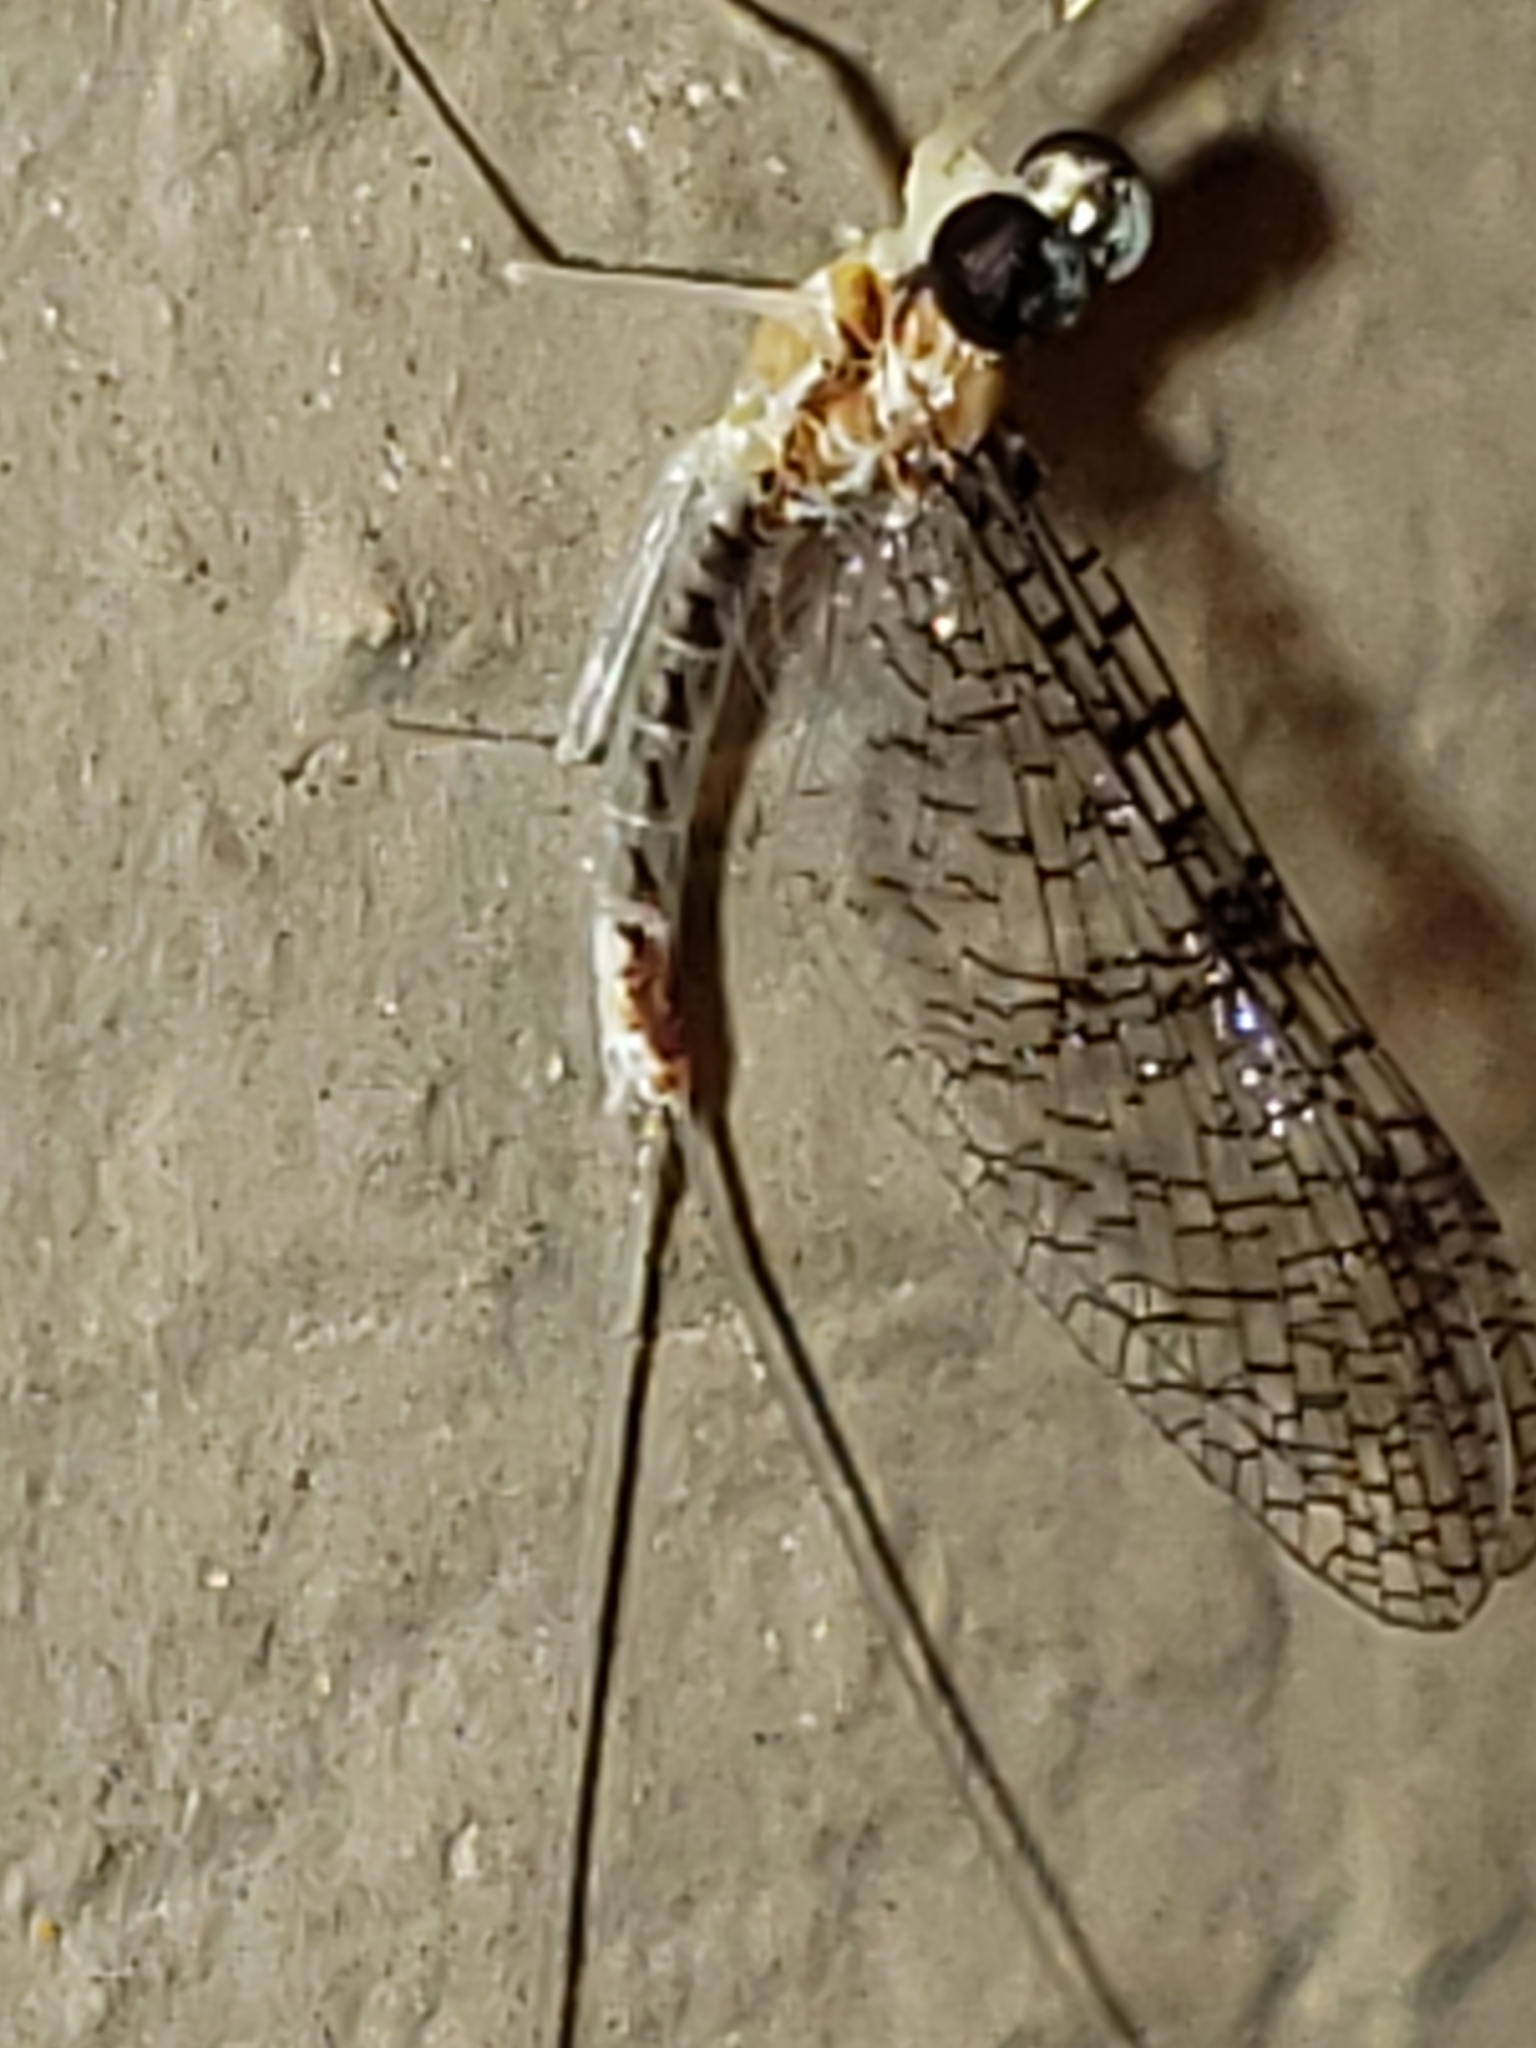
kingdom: Animalia
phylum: Arthropoda
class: Insecta
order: Ephemeroptera
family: Heptageniidae
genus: Leucrocuta
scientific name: Leucrocuta minerva
